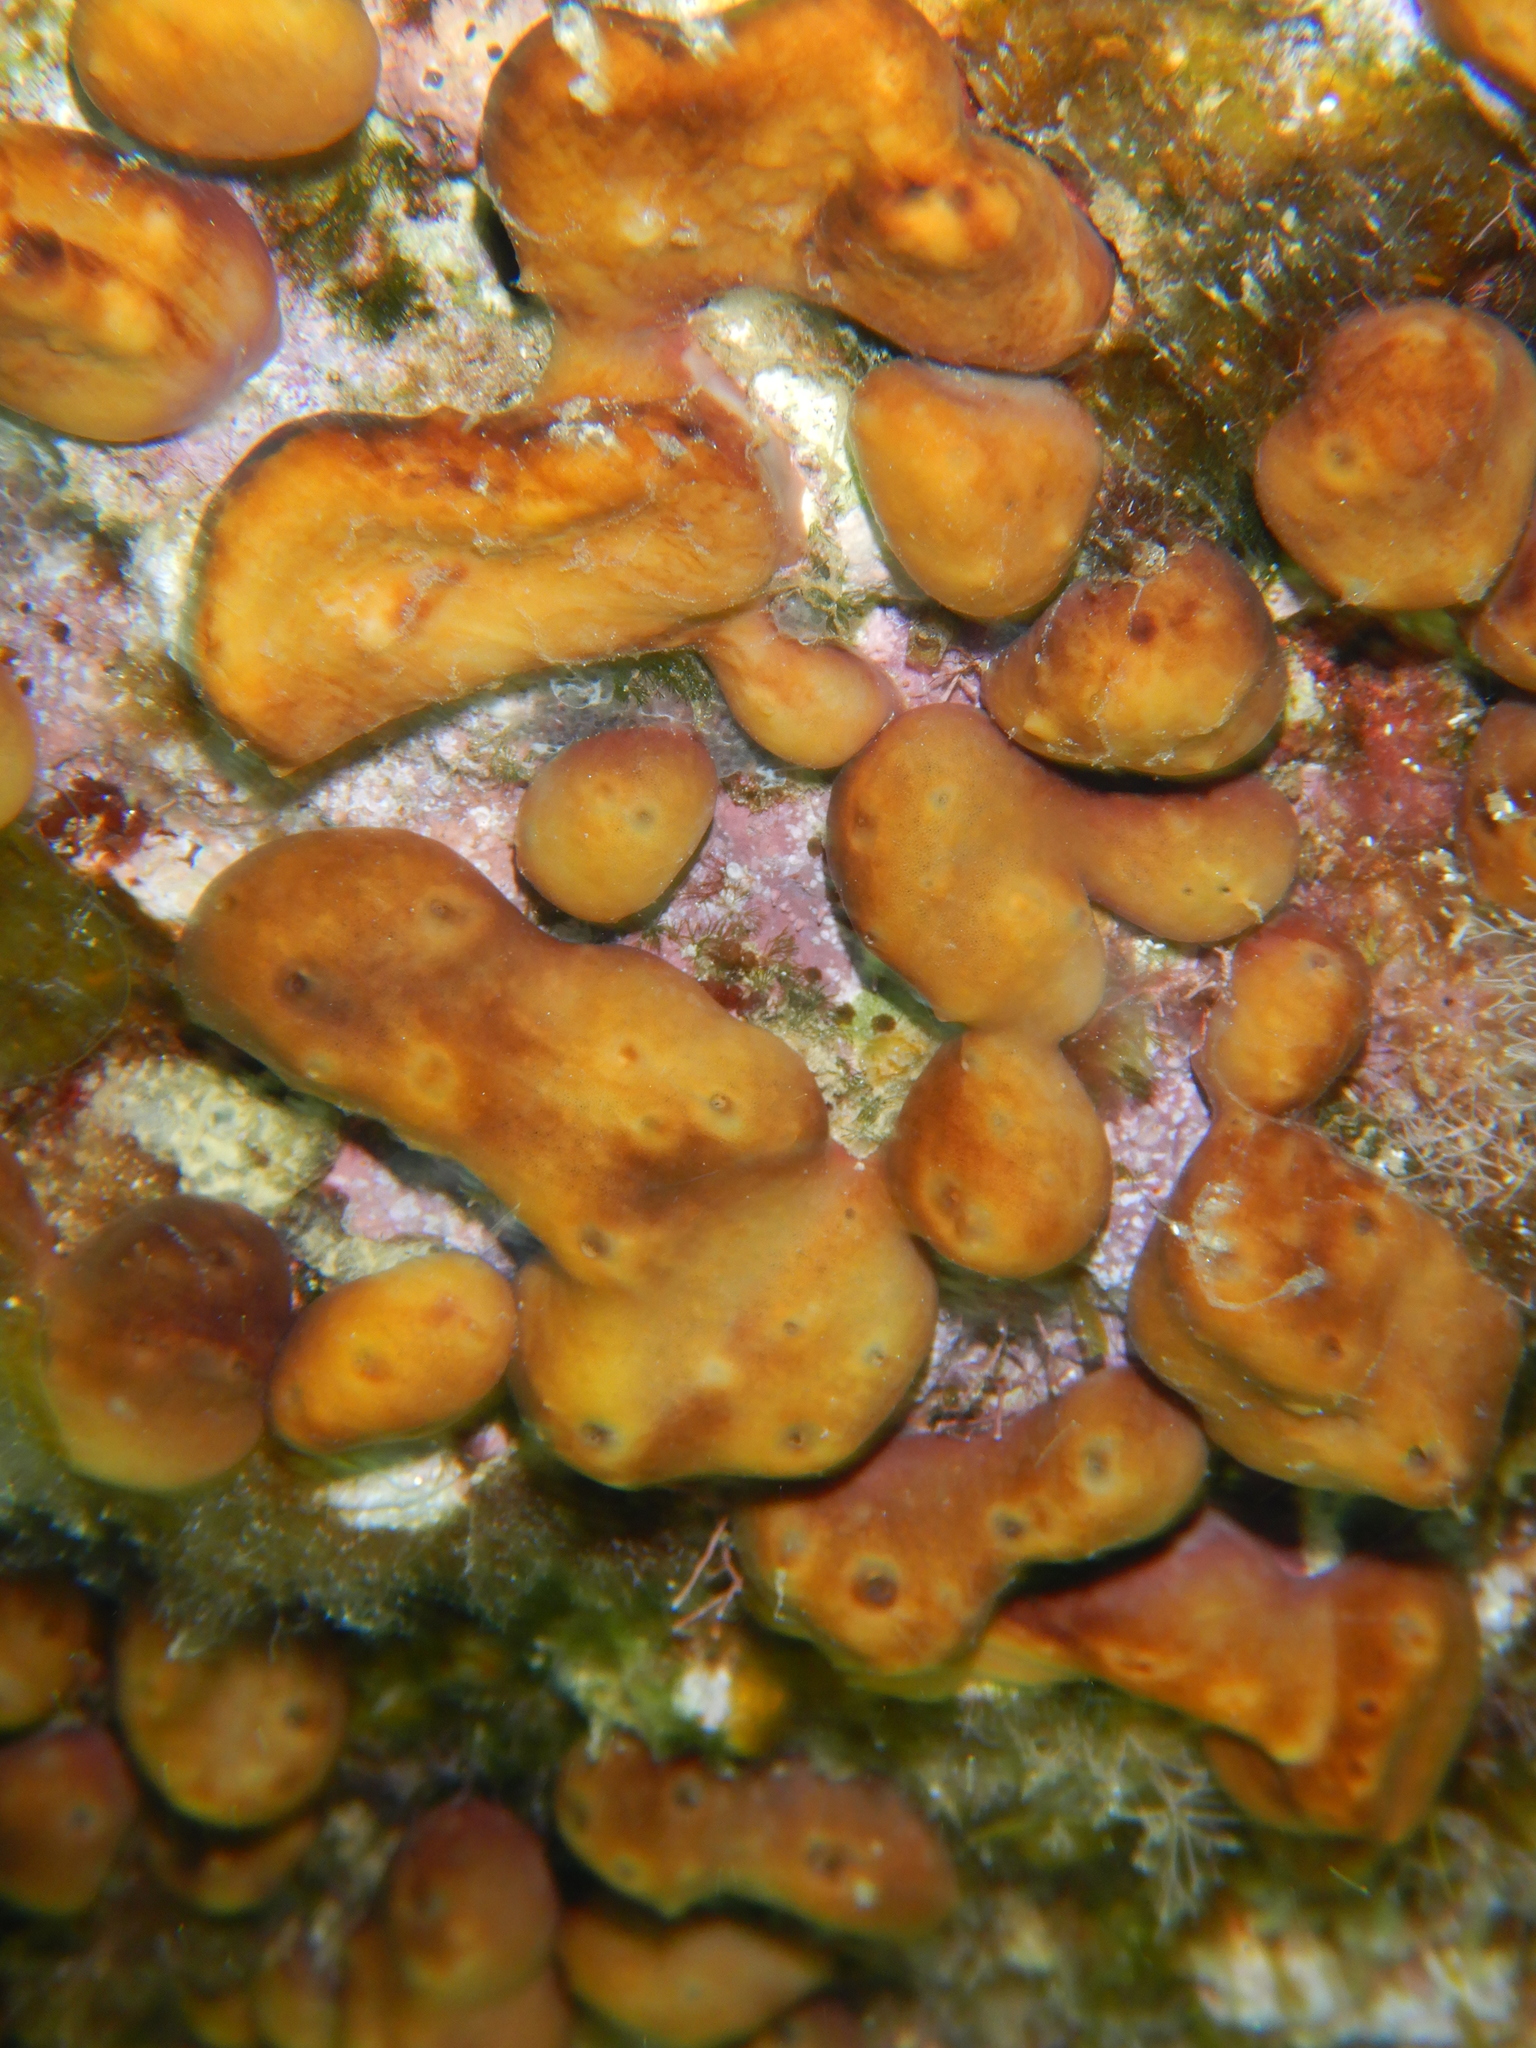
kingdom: Animalia
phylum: Porifera
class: Demospongiae
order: Chondrillida
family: Chondrillidae
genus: Chondrilla
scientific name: Chondrilla nucula
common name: Chicken liver sponge
